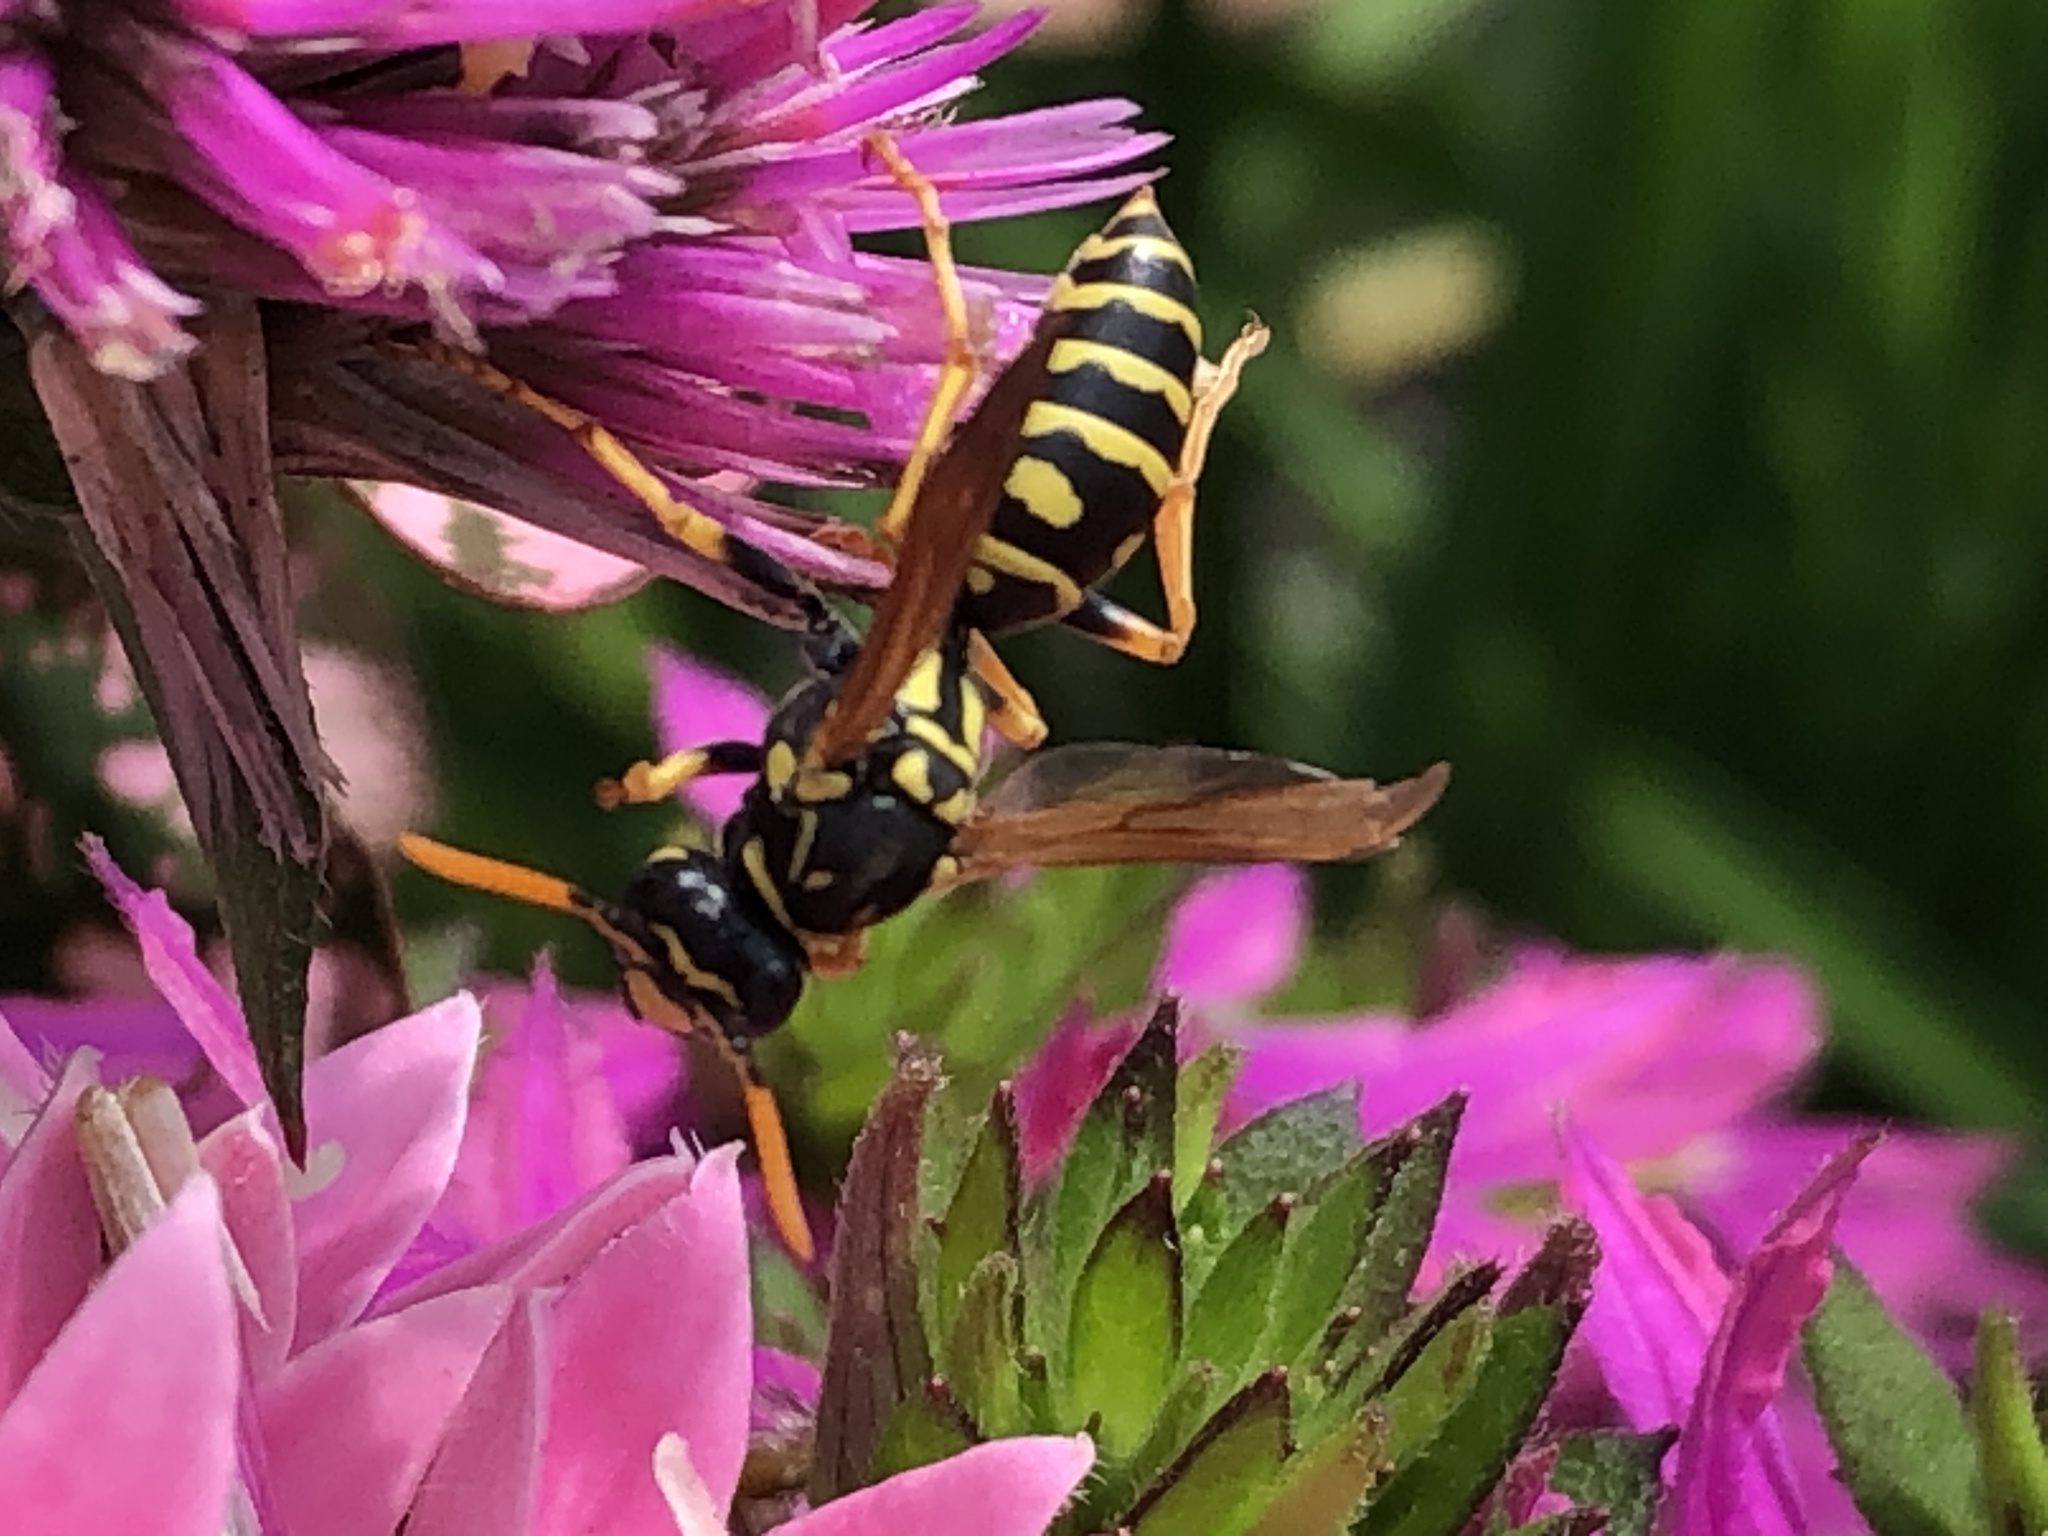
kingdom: Animalia
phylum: Arthropoda
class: Insecta
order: Hymenoptera
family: Eumenidae
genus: Polistes
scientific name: Polistes dominula
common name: Paper wasp
